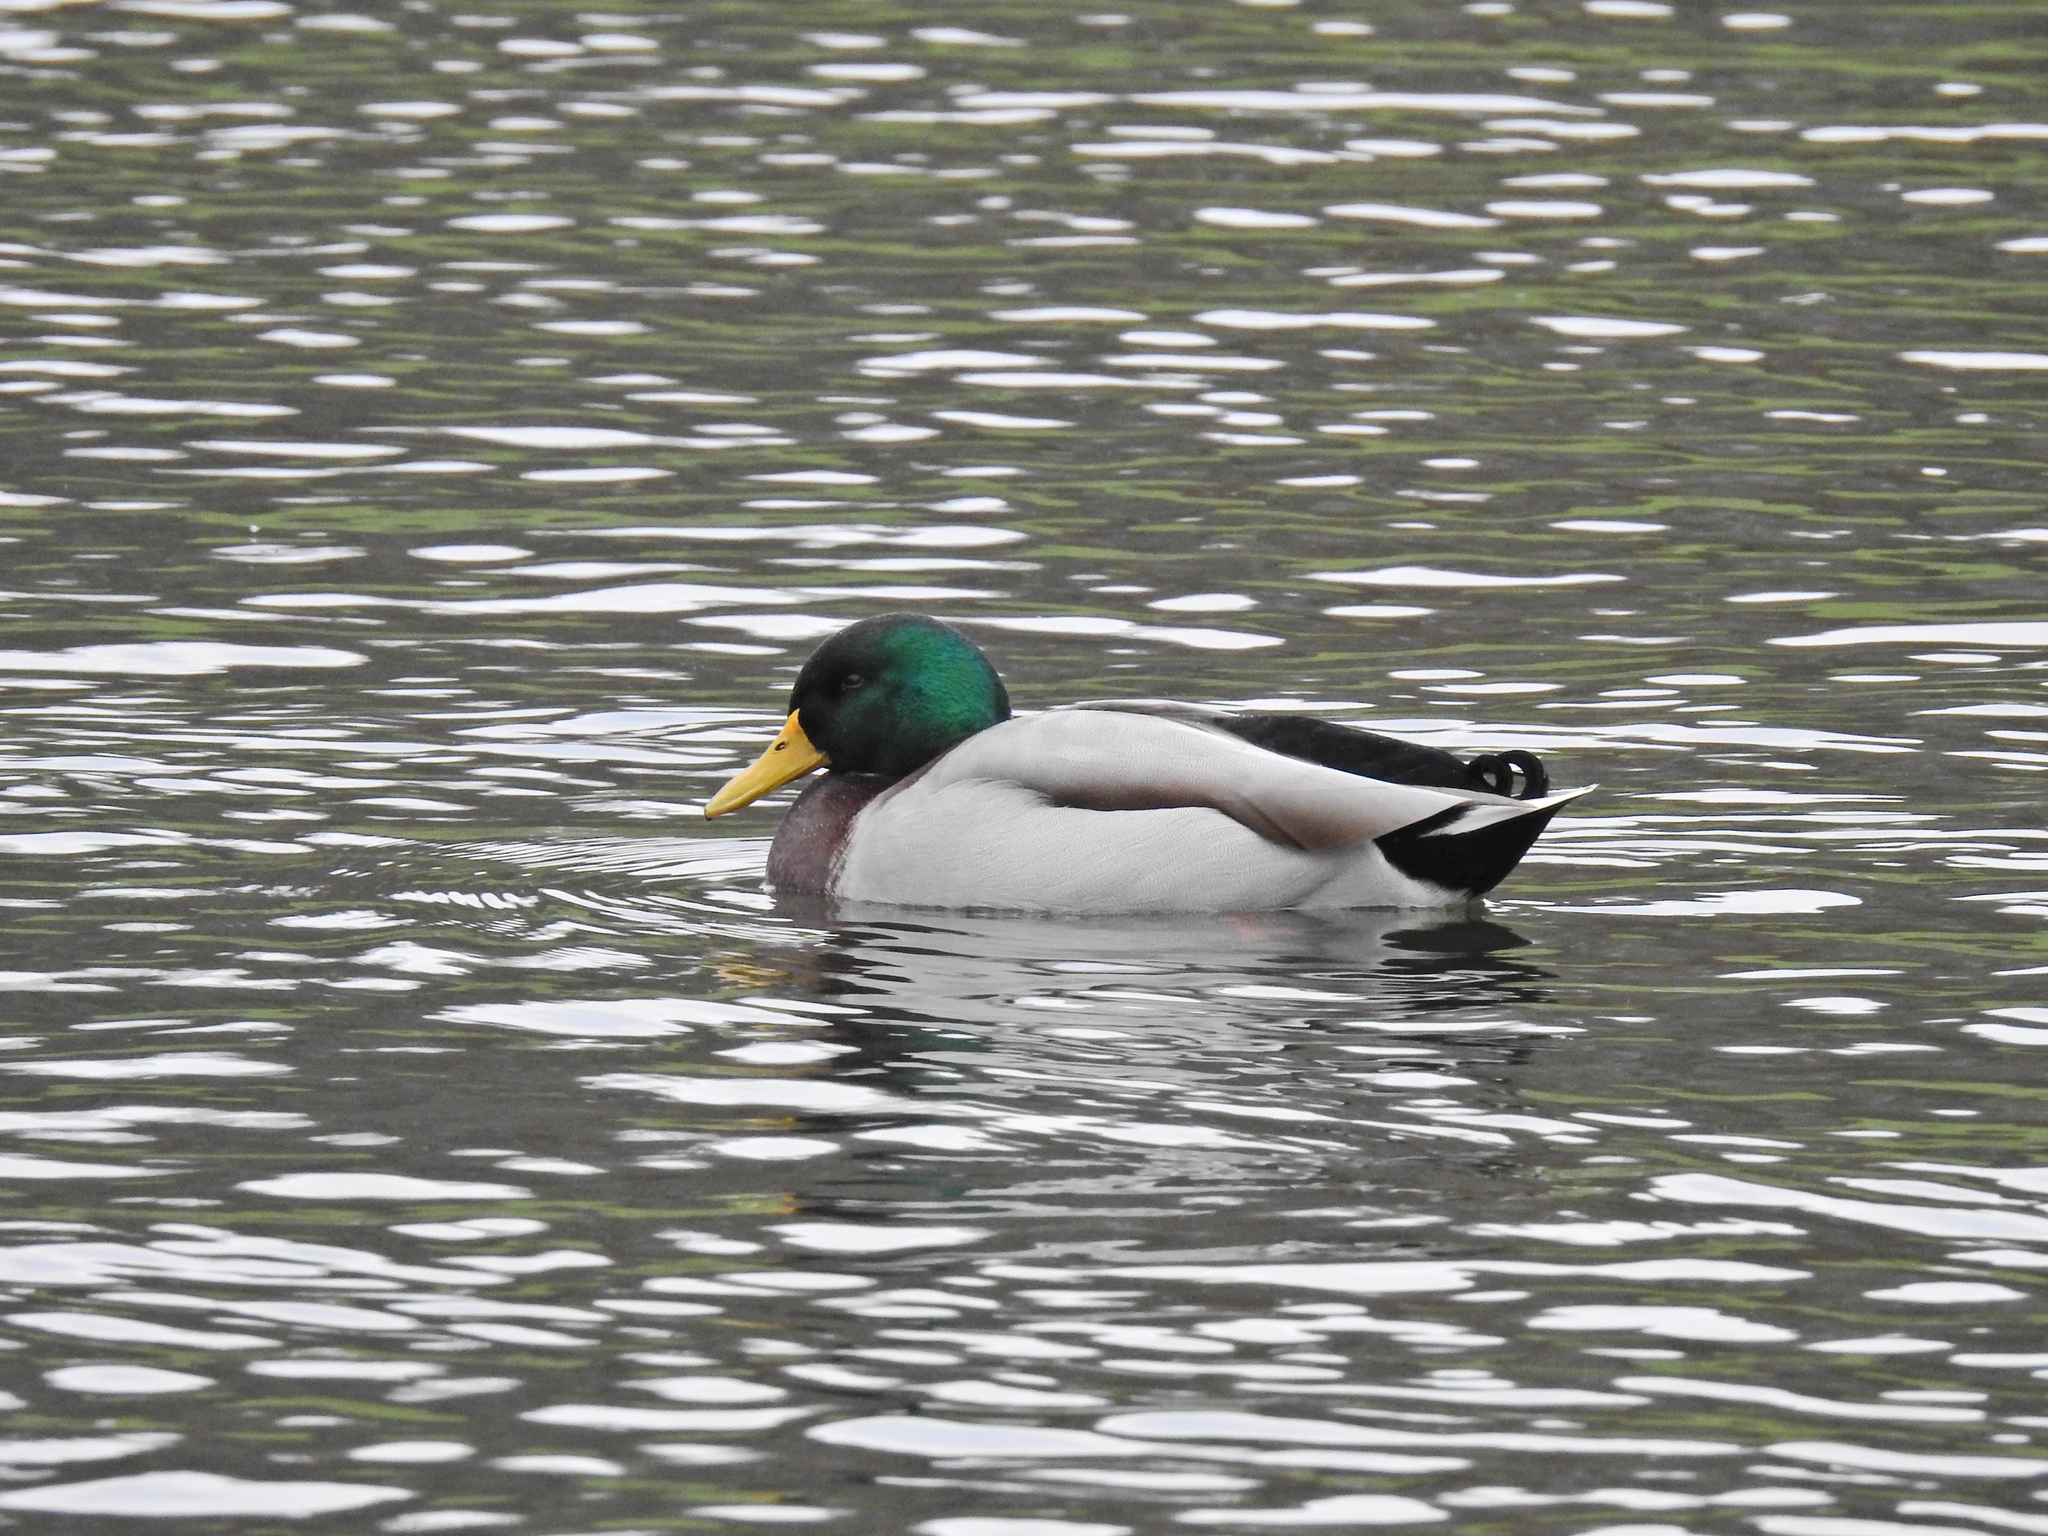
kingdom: Animalia
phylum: Chordata
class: Aves
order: Anseriformes
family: Anatidae
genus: Anas
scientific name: Anas platyrhynchos
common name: Mallard
